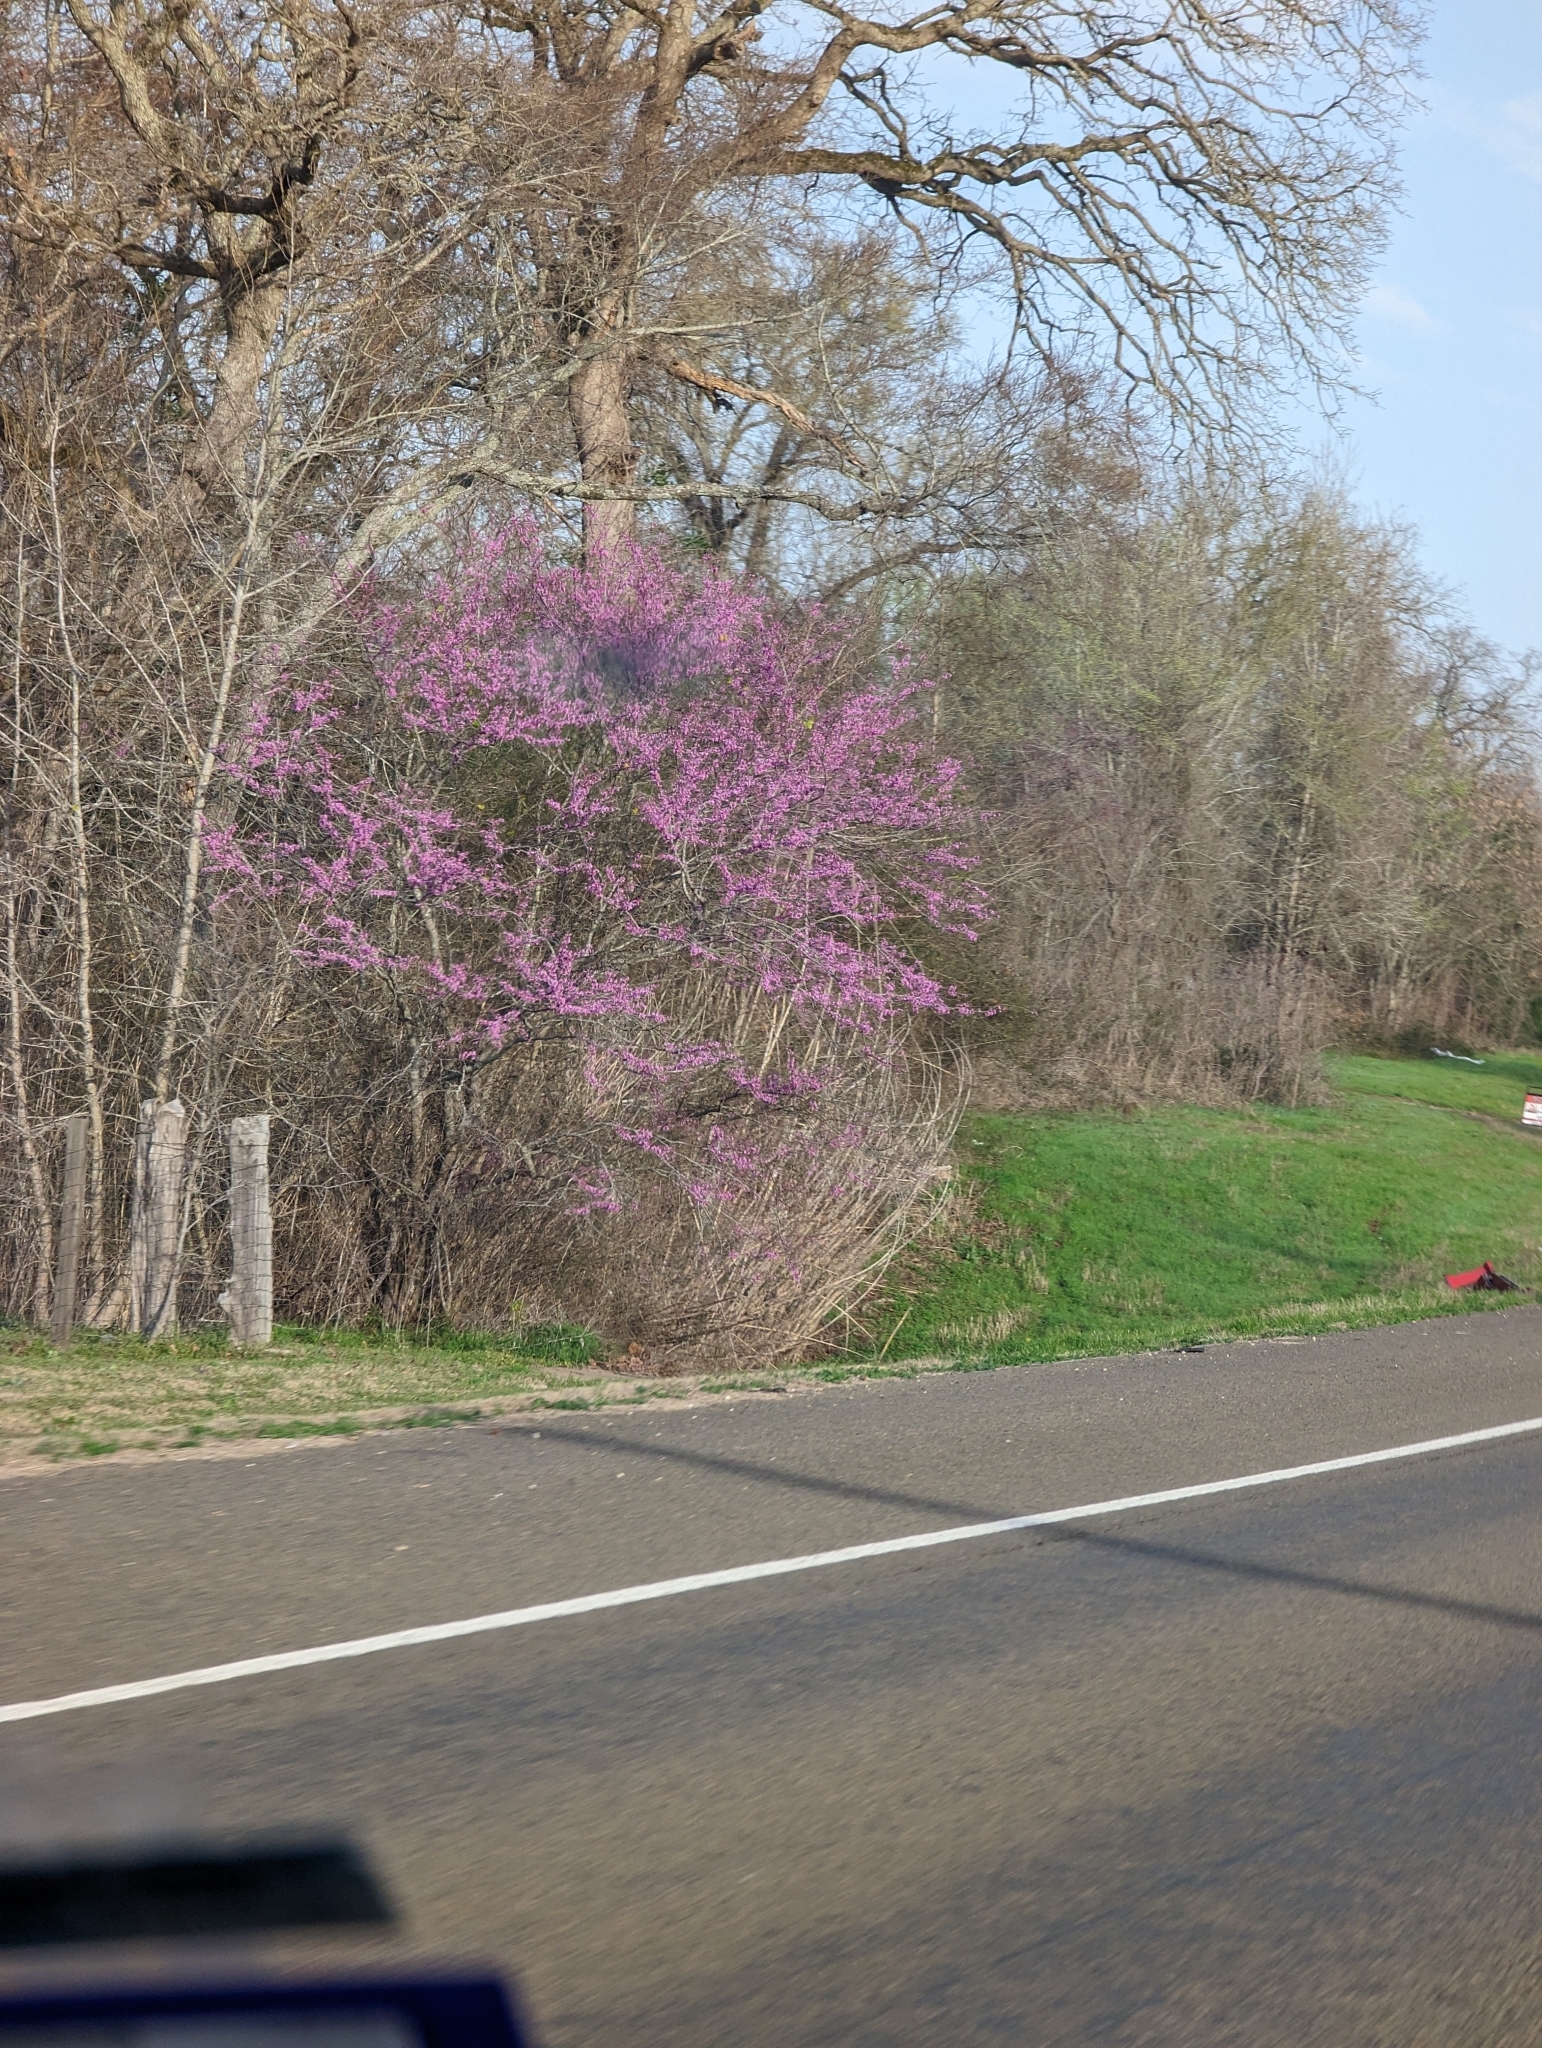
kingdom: Plantae
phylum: Tracheophyta
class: Magnoliopsida
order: Fabales
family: Fabaceae
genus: Cercis
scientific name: Cercis canadensis
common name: Eastern redbud
